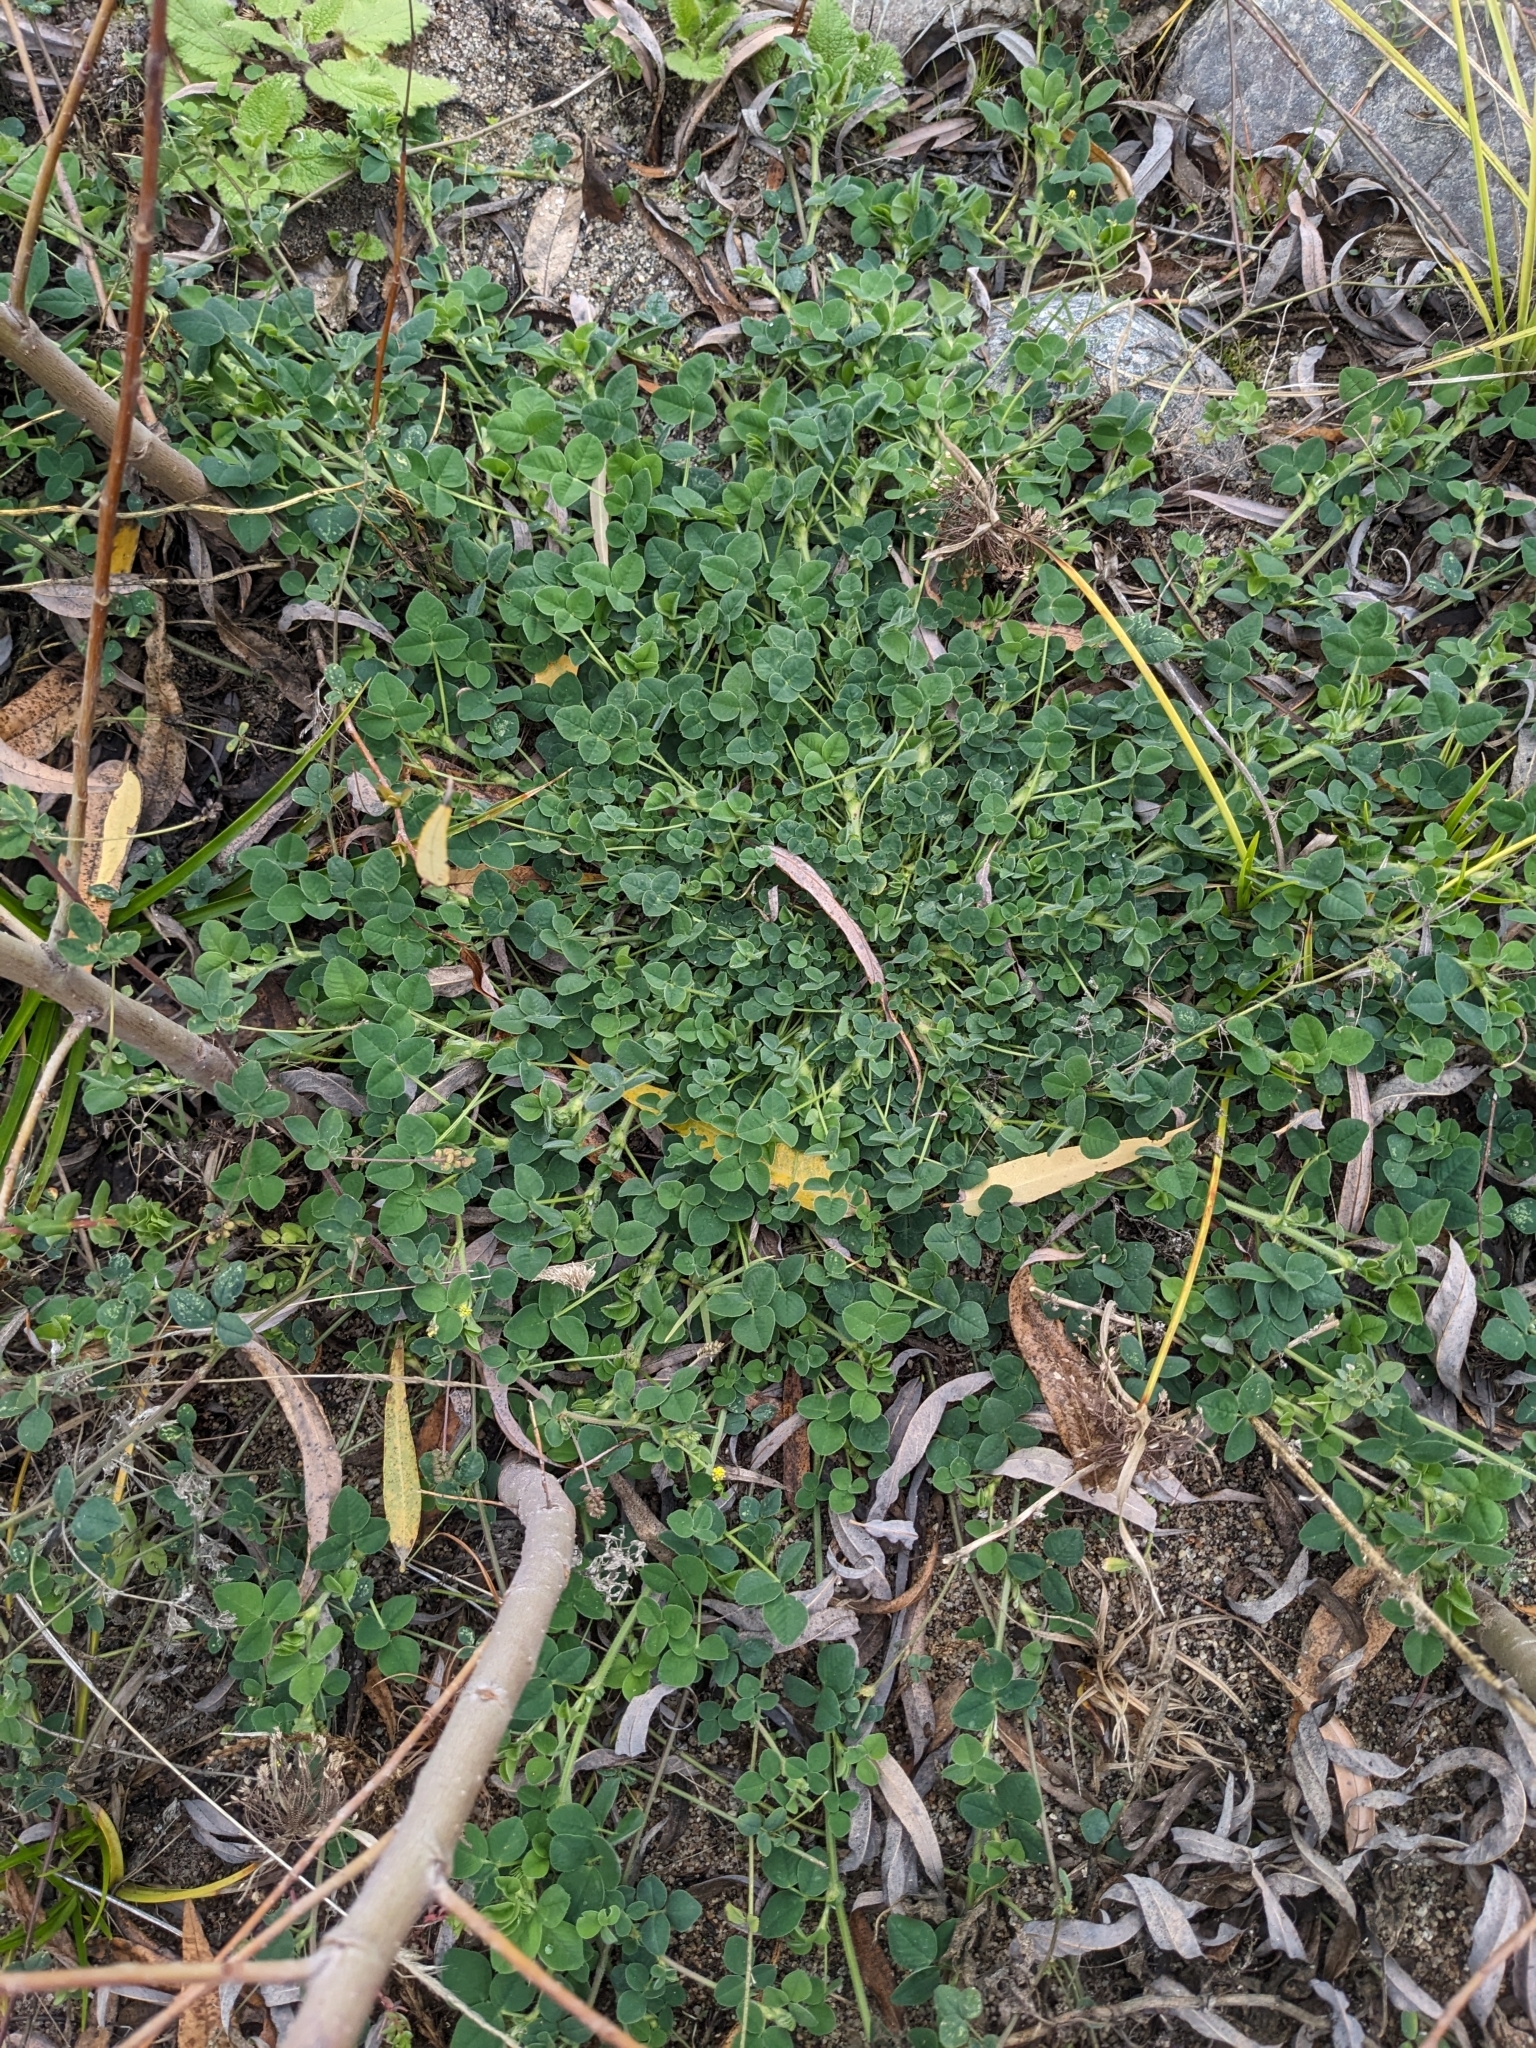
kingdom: Plantae
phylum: Tracheophyta
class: Magnoliopsida
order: Fabales
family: Fabaceae
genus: Medicago
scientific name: Medicago lupulina
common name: Black medick
